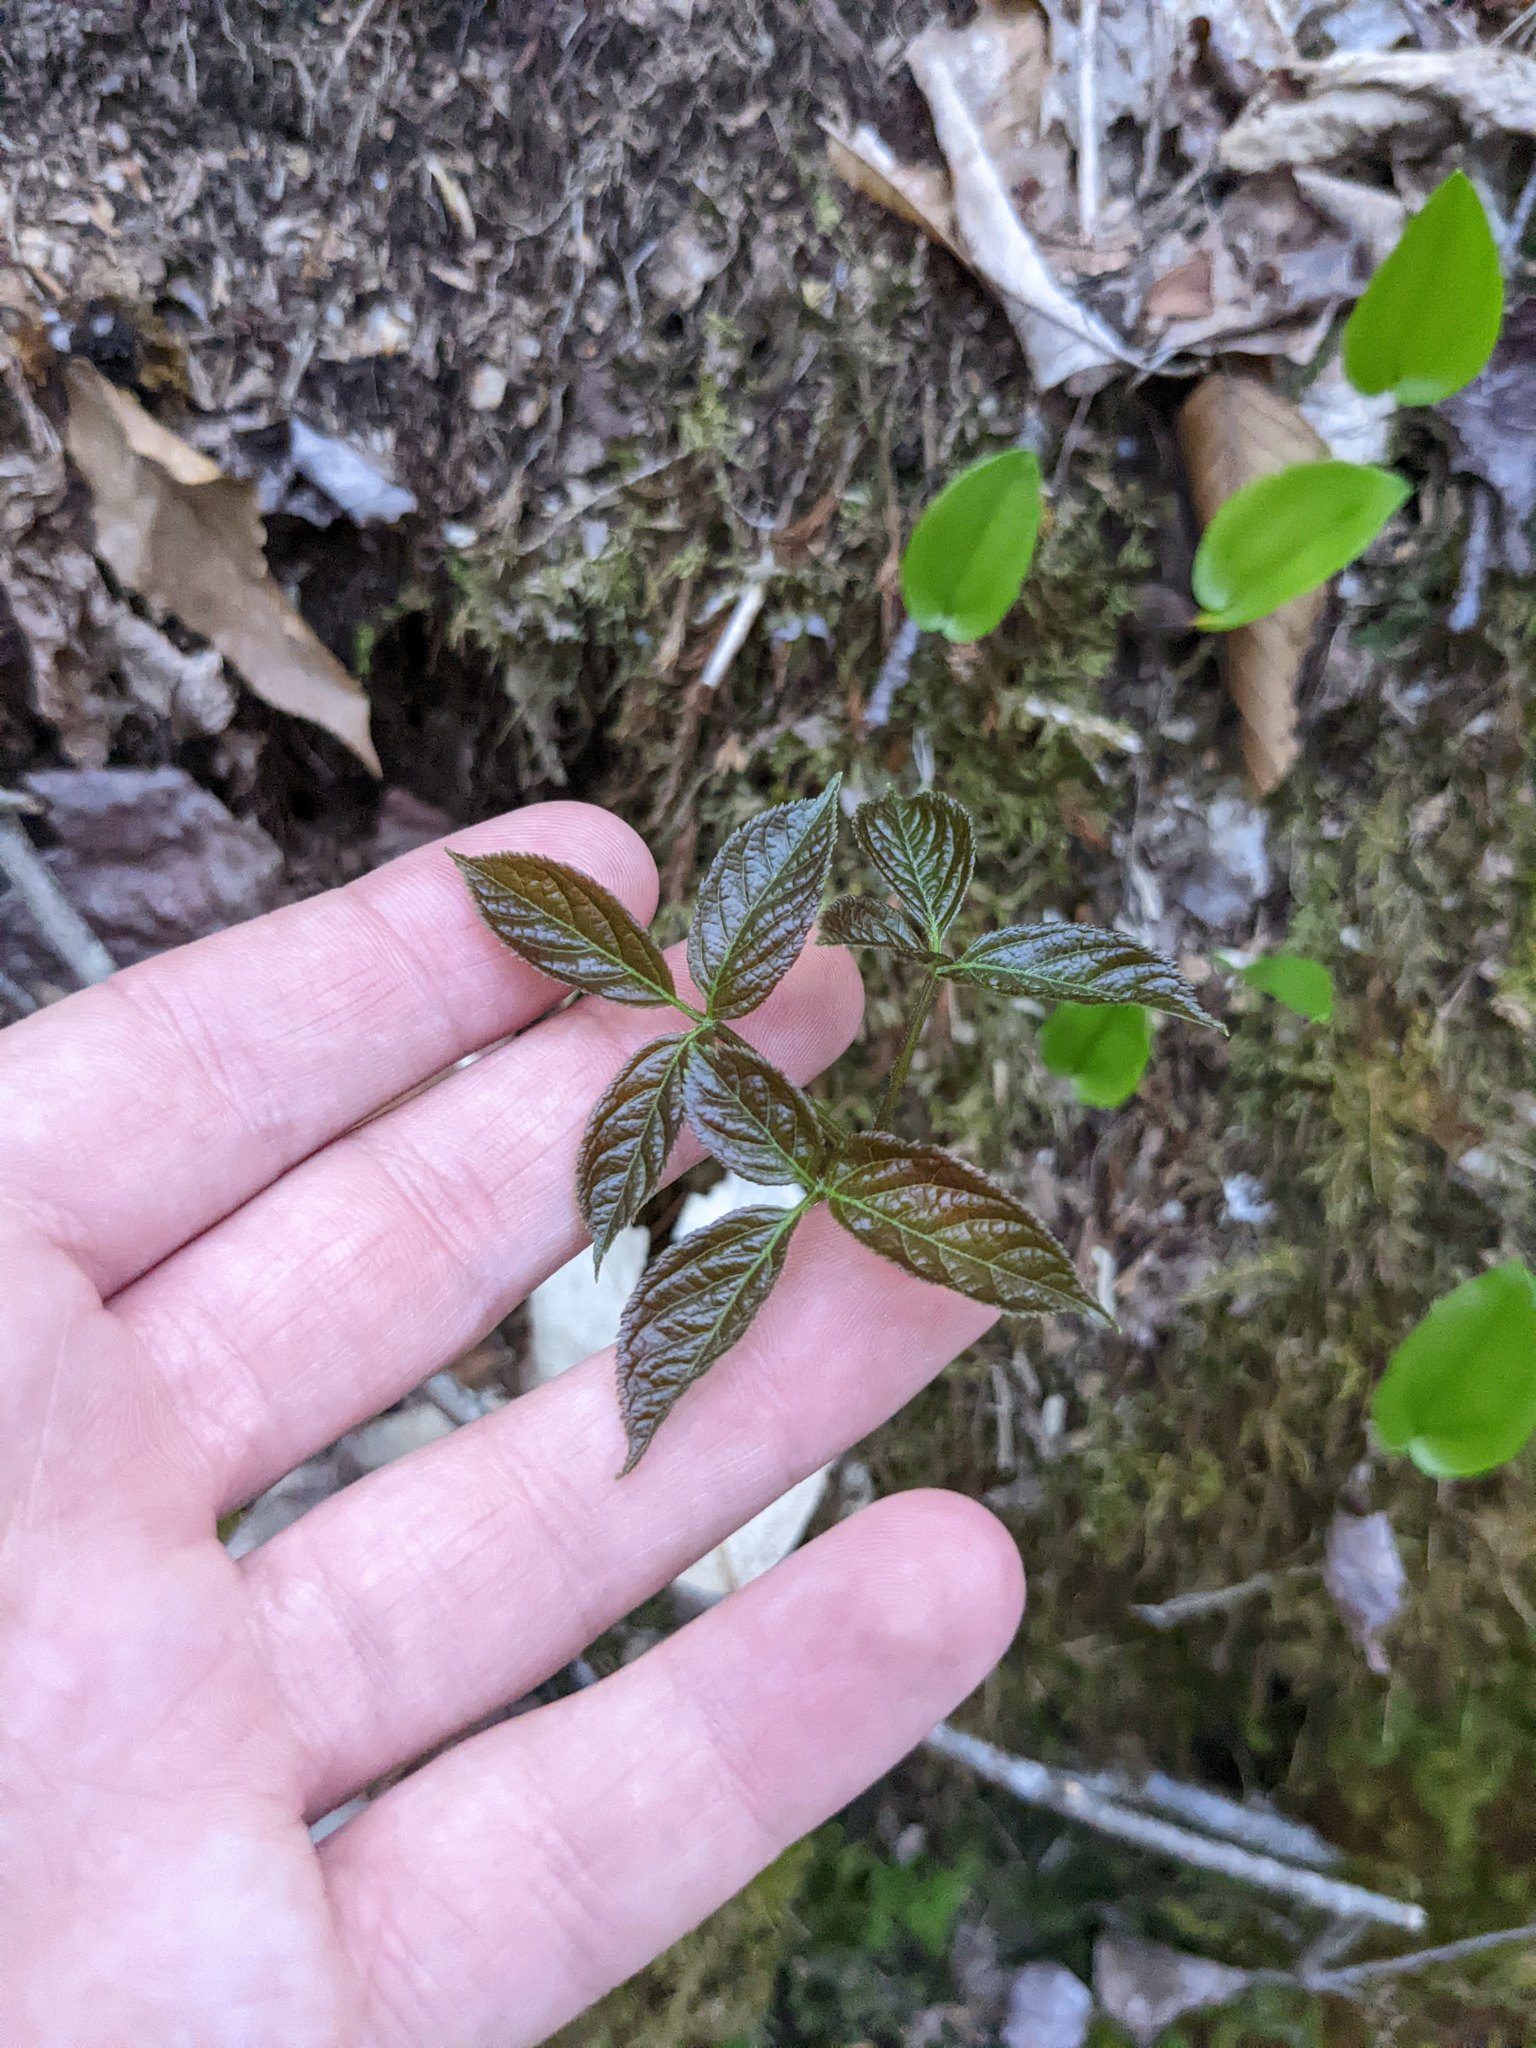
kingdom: Plantae
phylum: Tracheophyta
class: Magnoliopsida
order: Apiales
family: Araliaceae
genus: Aralia
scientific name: Aralia nudicaulis
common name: Wild sarsaparilla
